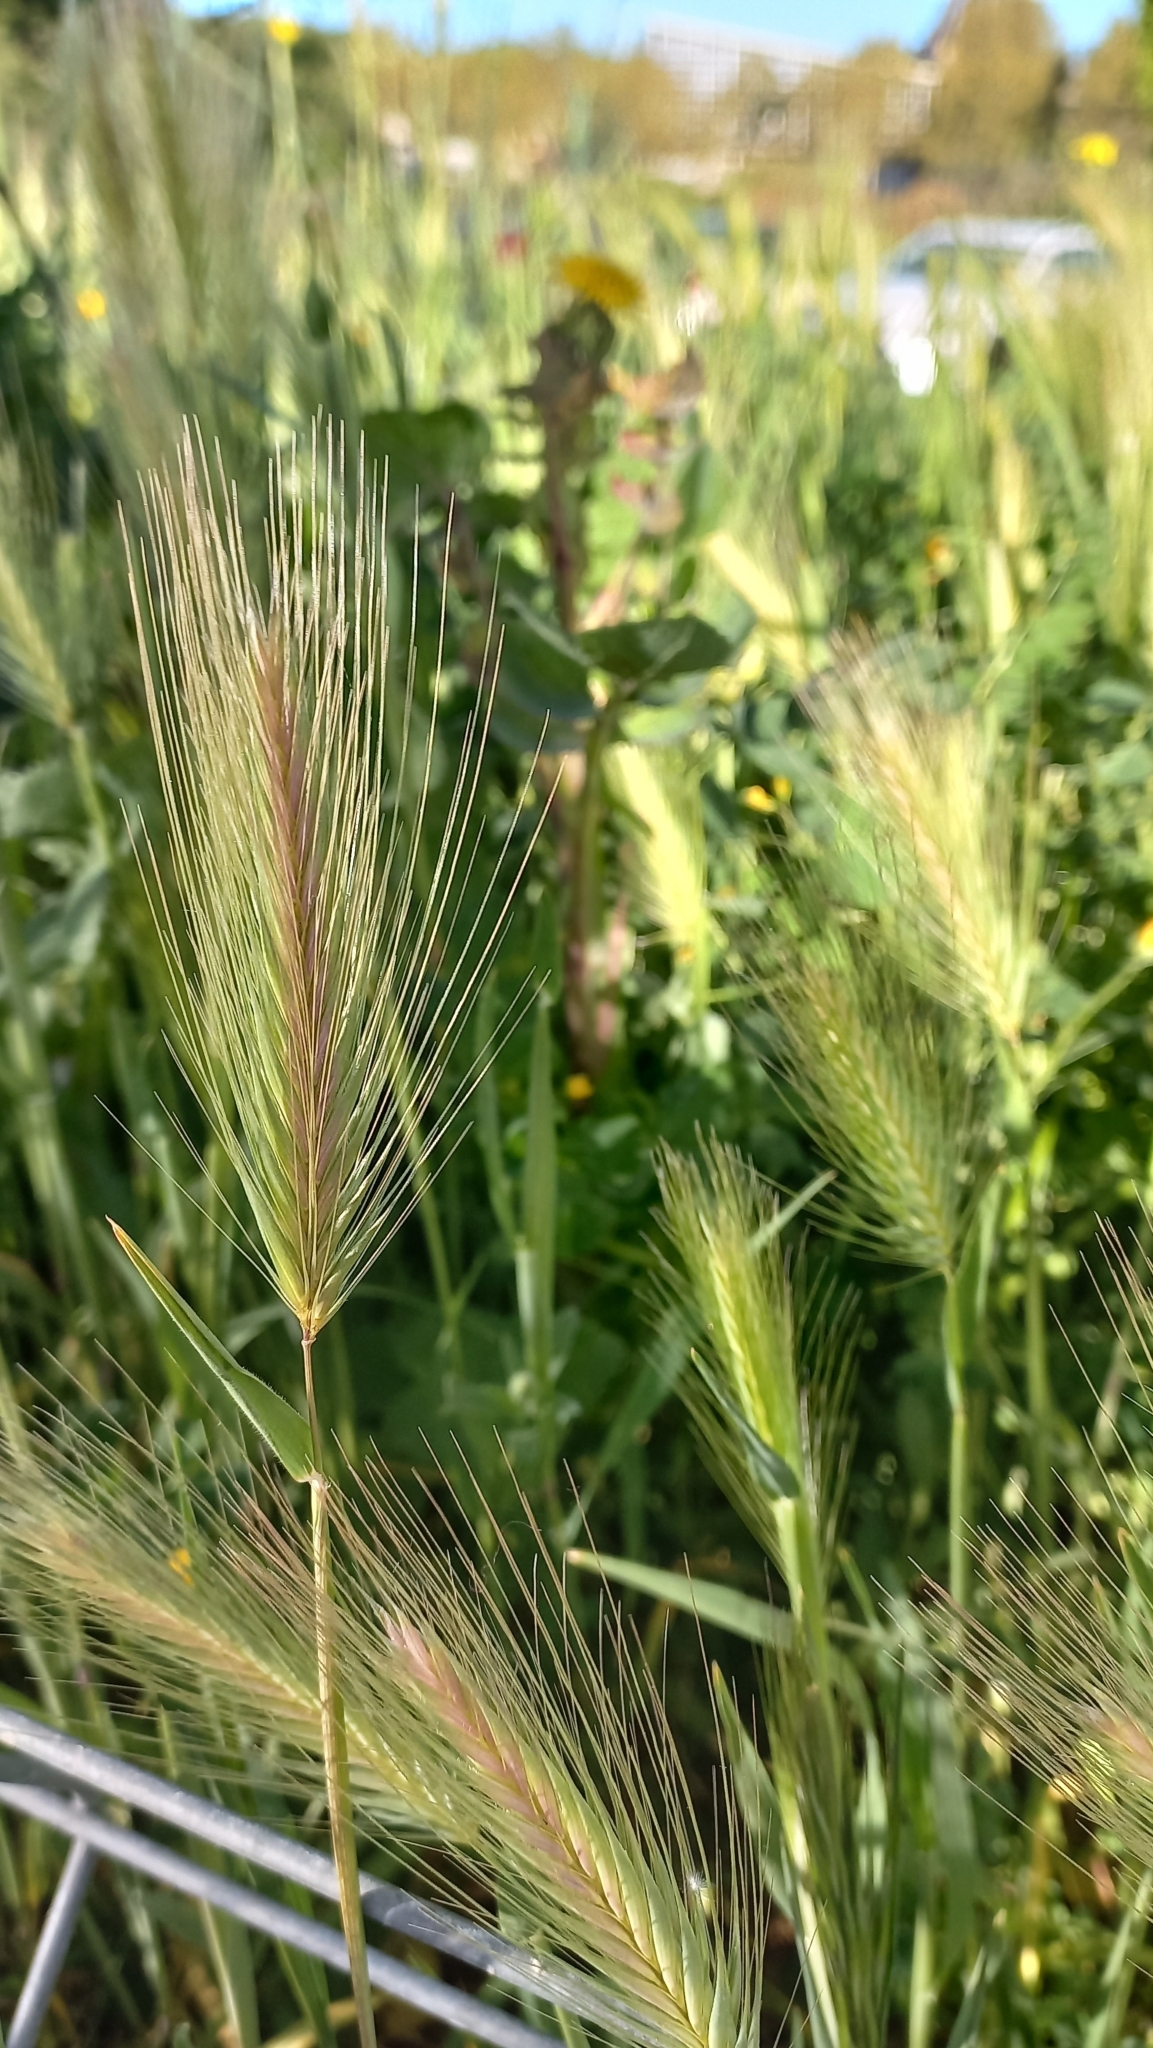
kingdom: Plantae
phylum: Tracheophyta
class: Liliopsida
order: Poales
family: Poaceae
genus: Hordeum
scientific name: Hordeum murinum
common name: Wall barley
